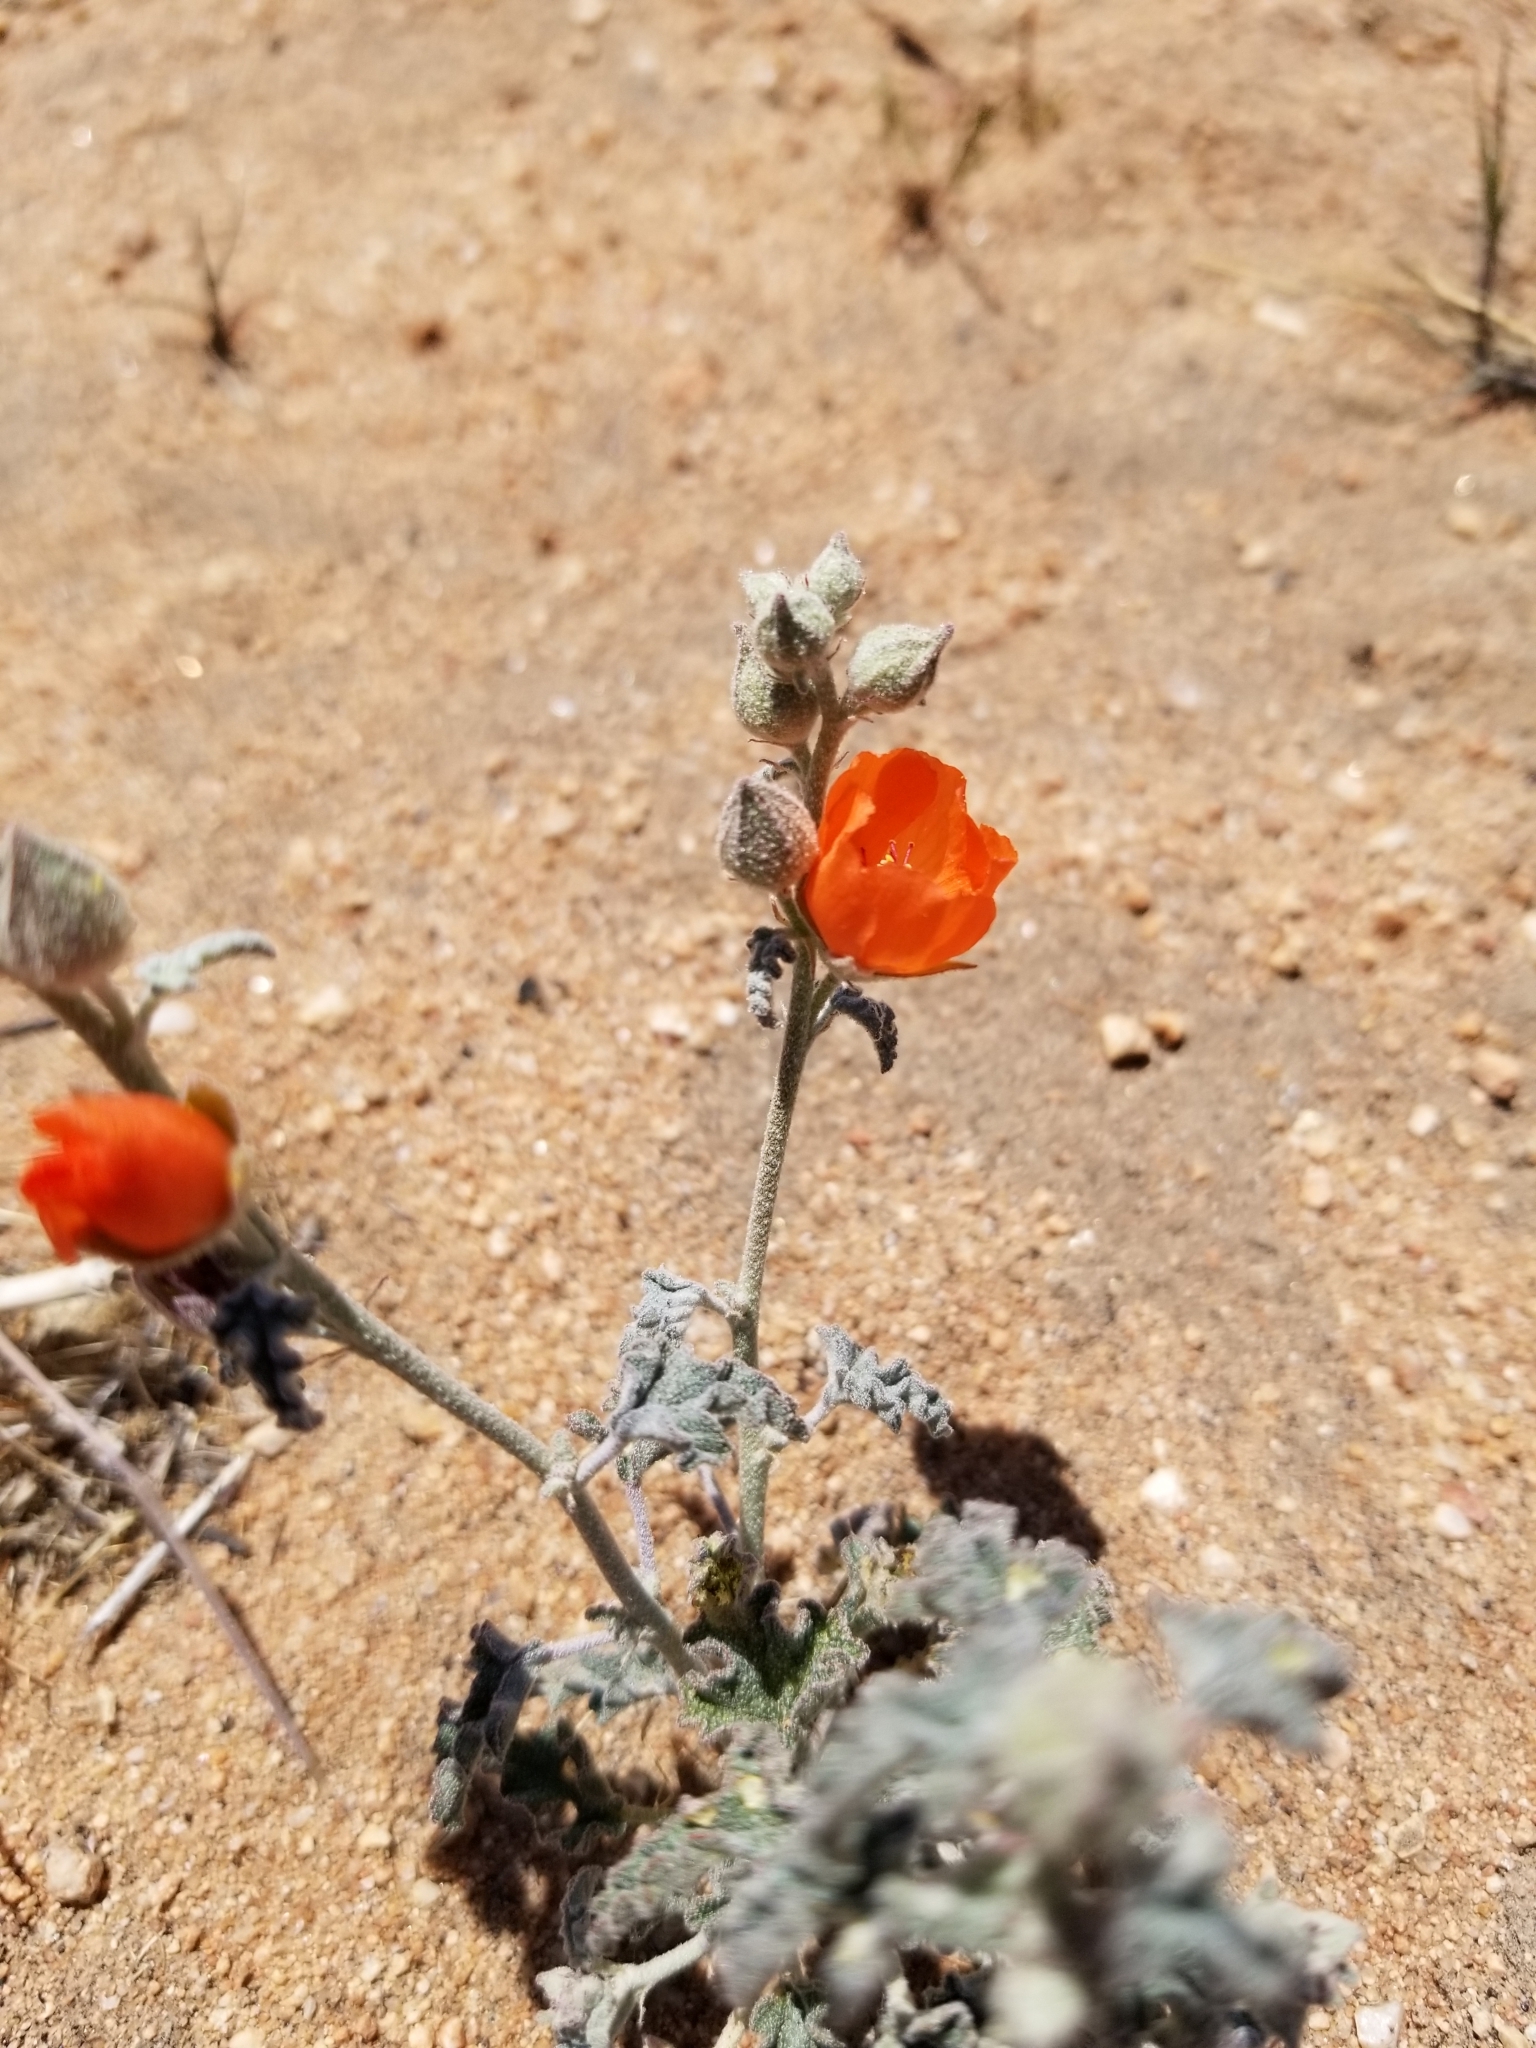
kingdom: Plantae
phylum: Tracheophyta
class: Magnoliopsida
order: Malvales
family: Malvaceae
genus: Sphaeralcea
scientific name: Sphaeralcea ambigua
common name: Apricot globe-mallow
